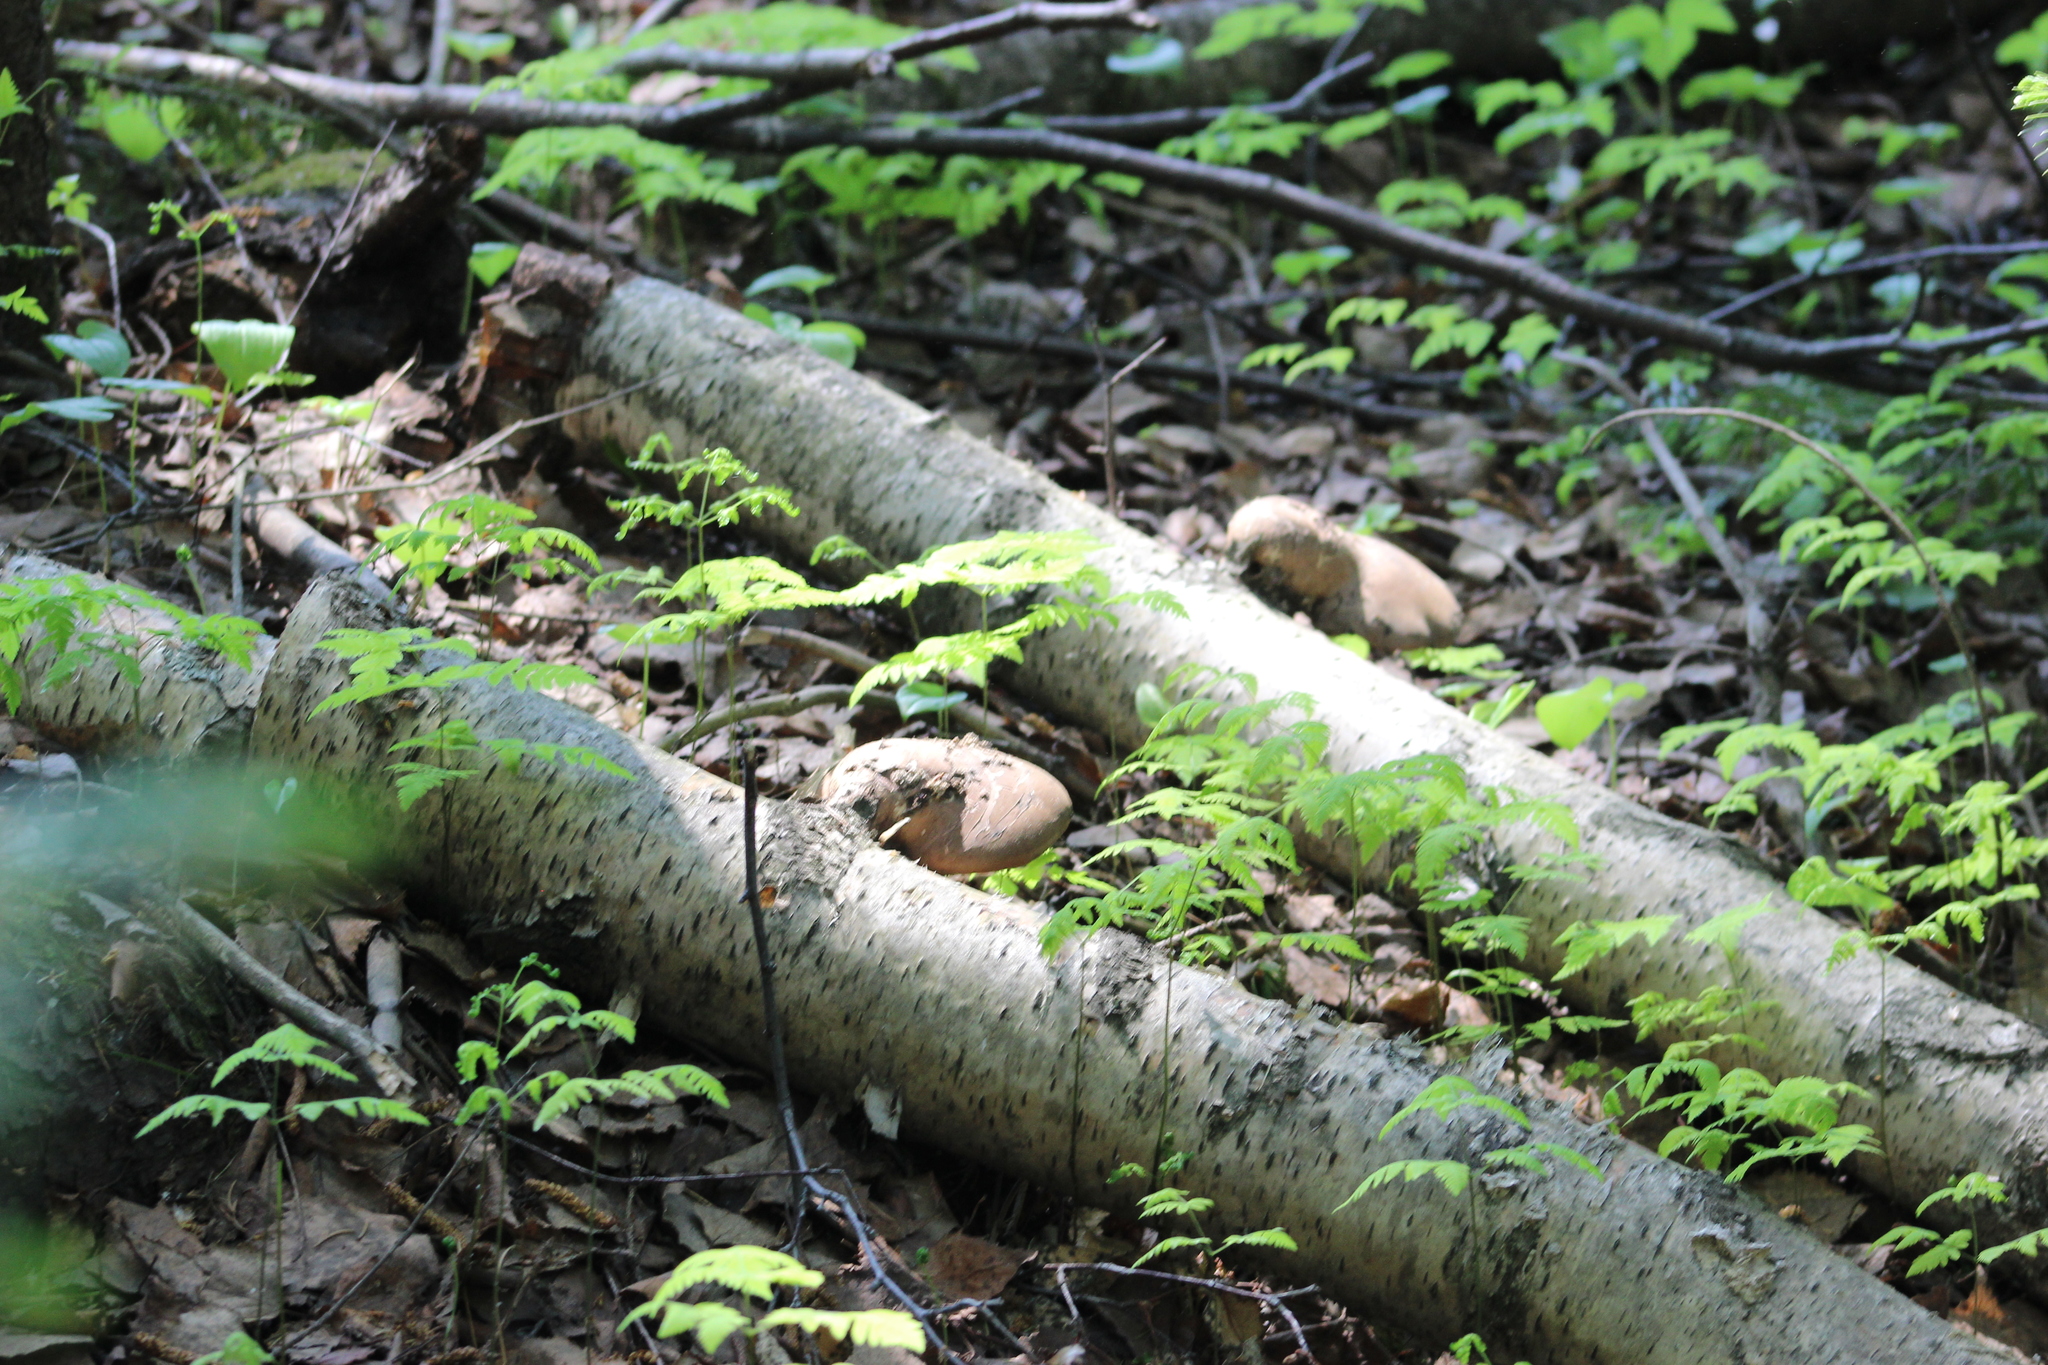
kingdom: Fungi
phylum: Basidiomycota
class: Agaricomycetes
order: Polyporales
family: Fomitopsidaceae
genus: Fomitopsis
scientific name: Fomitopsis betulina
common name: Birch polypore
